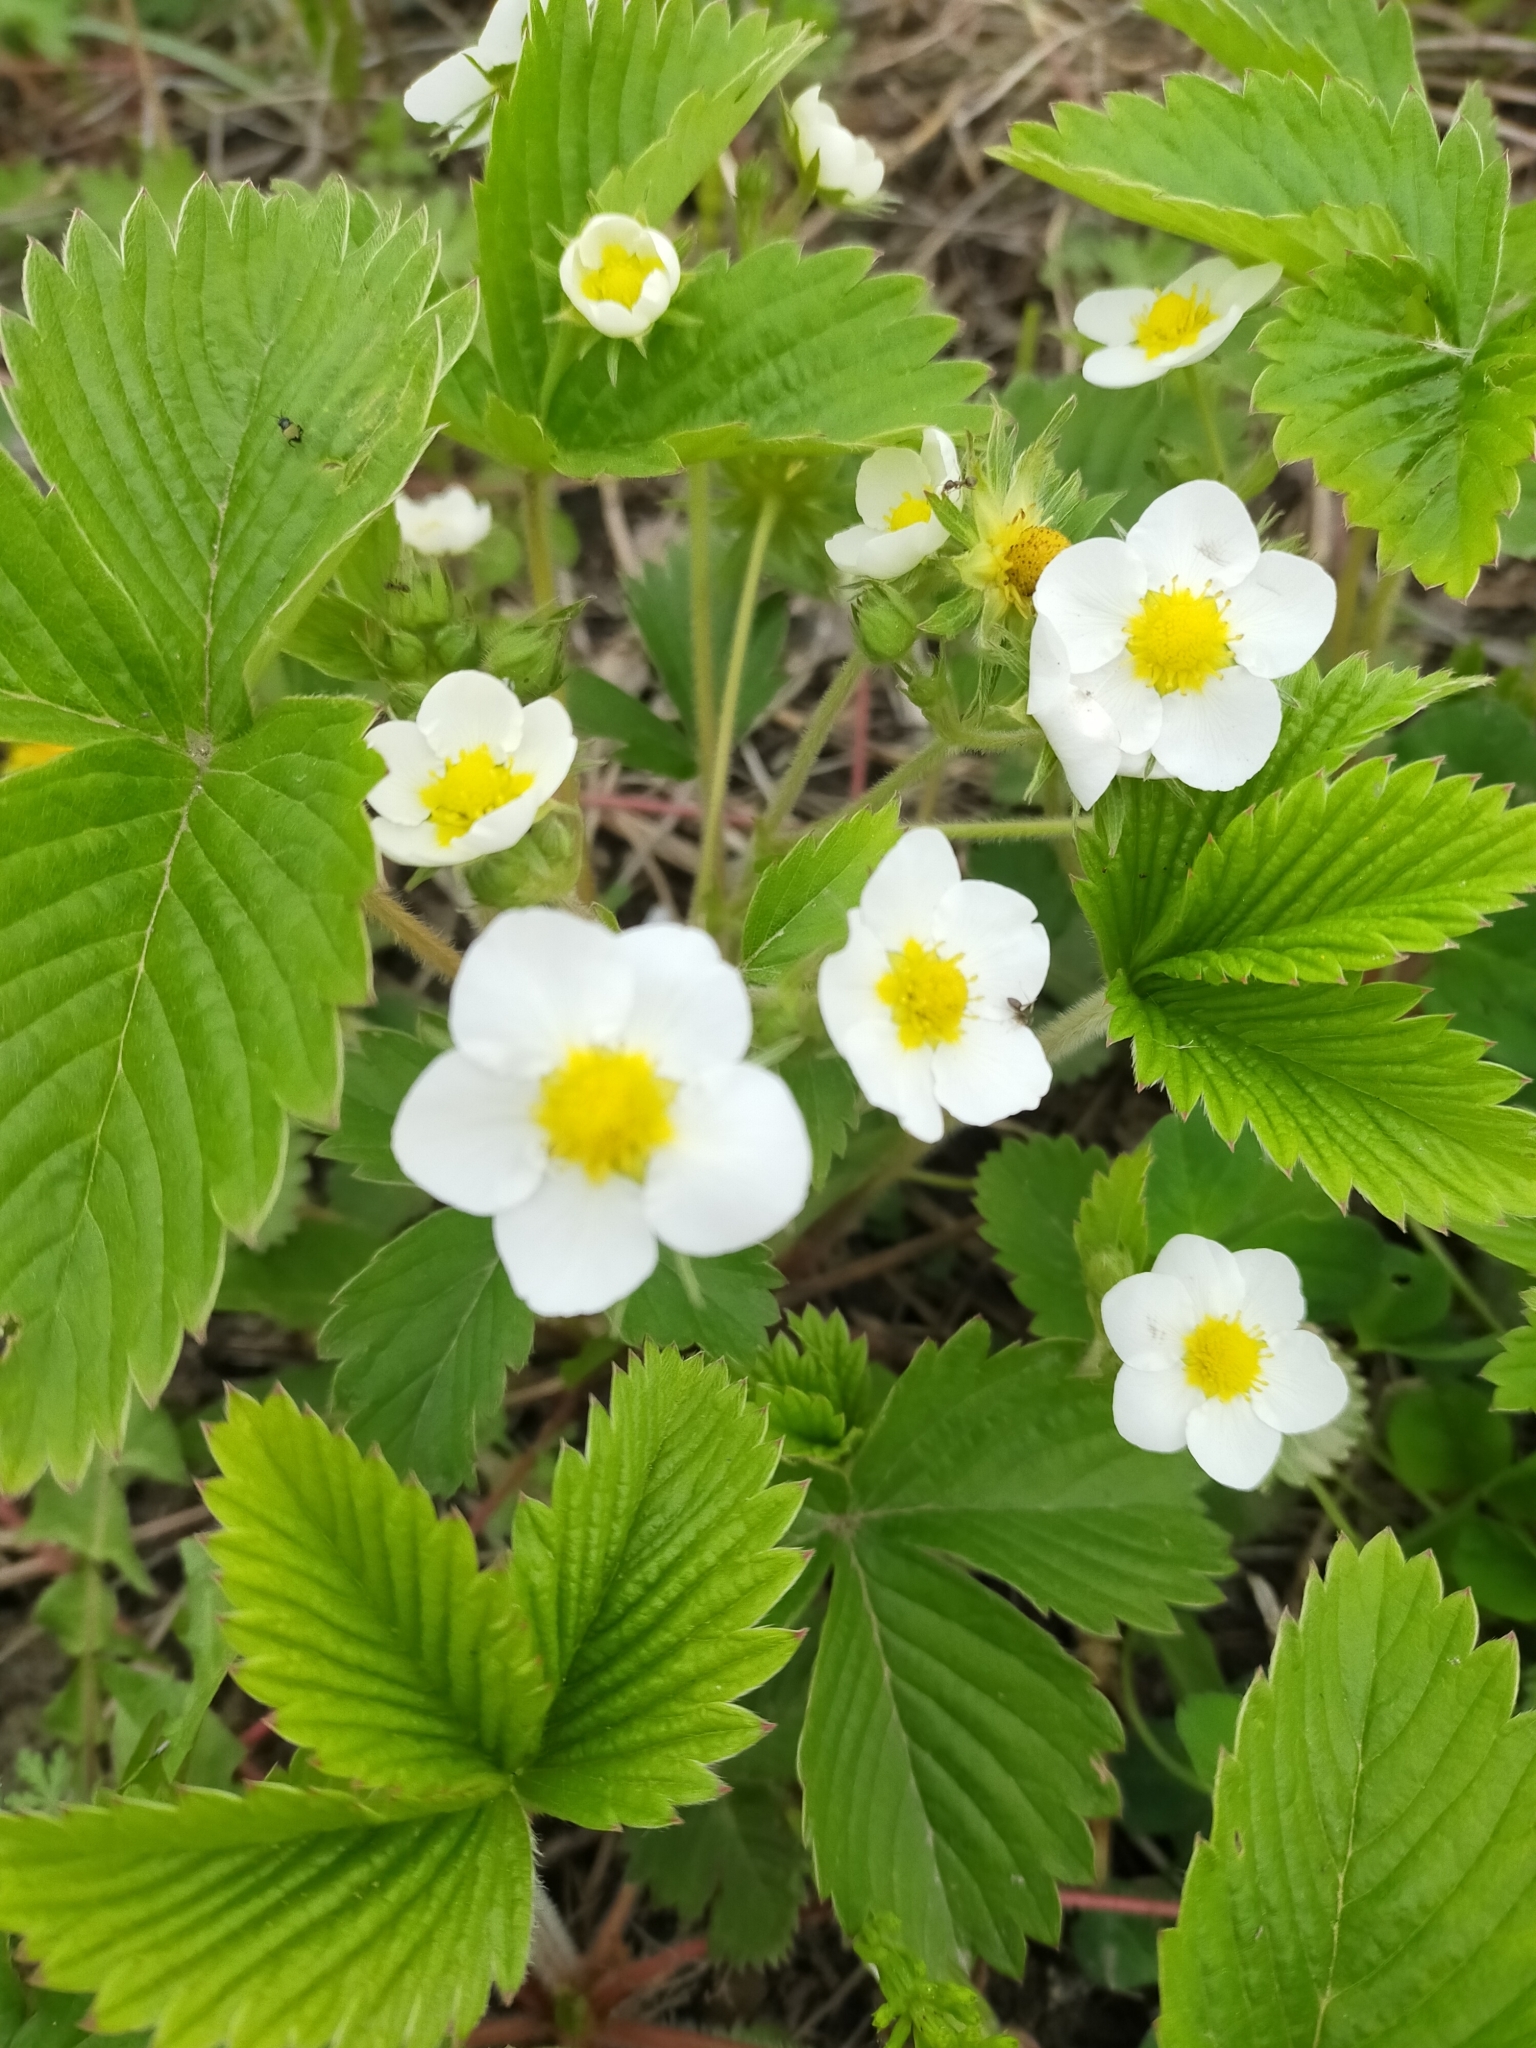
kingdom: Plantae
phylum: Tracheophyta
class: Magnoliopsida
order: Rosales
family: Rosaceae
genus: Fragaria
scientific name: Fragaria orientalis
